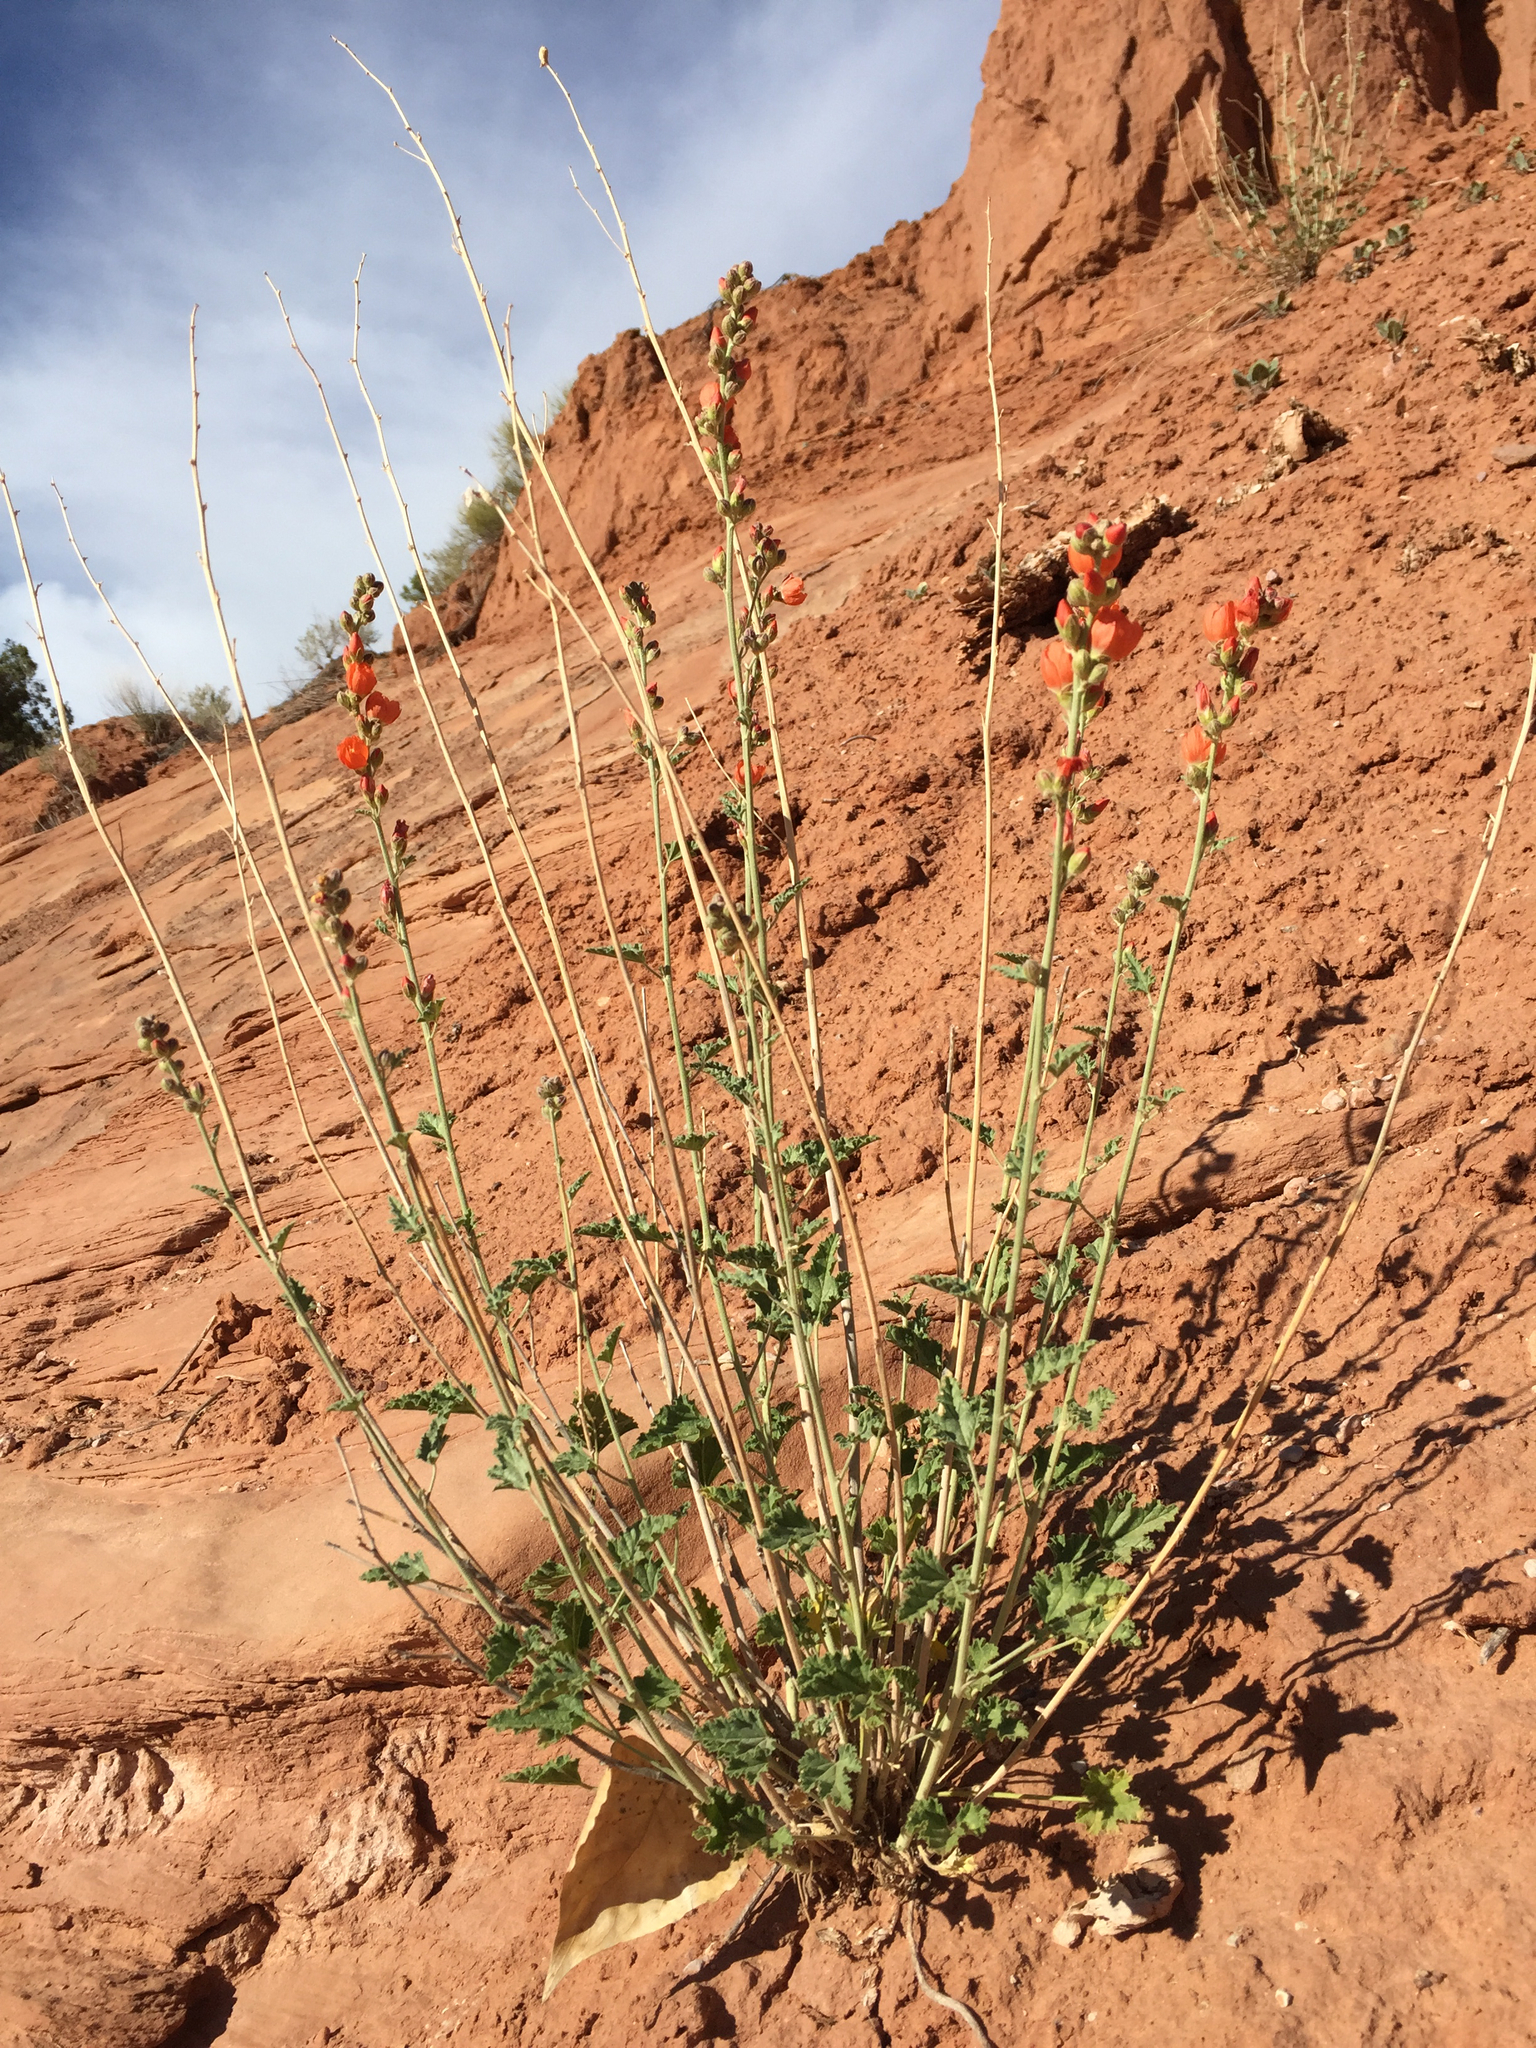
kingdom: Plantae
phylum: Tracheophyta
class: Magnoliopsida
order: Malvales
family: Malvaceae
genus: Sphaeralcea
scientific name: Sphaeralcea parvifolia
